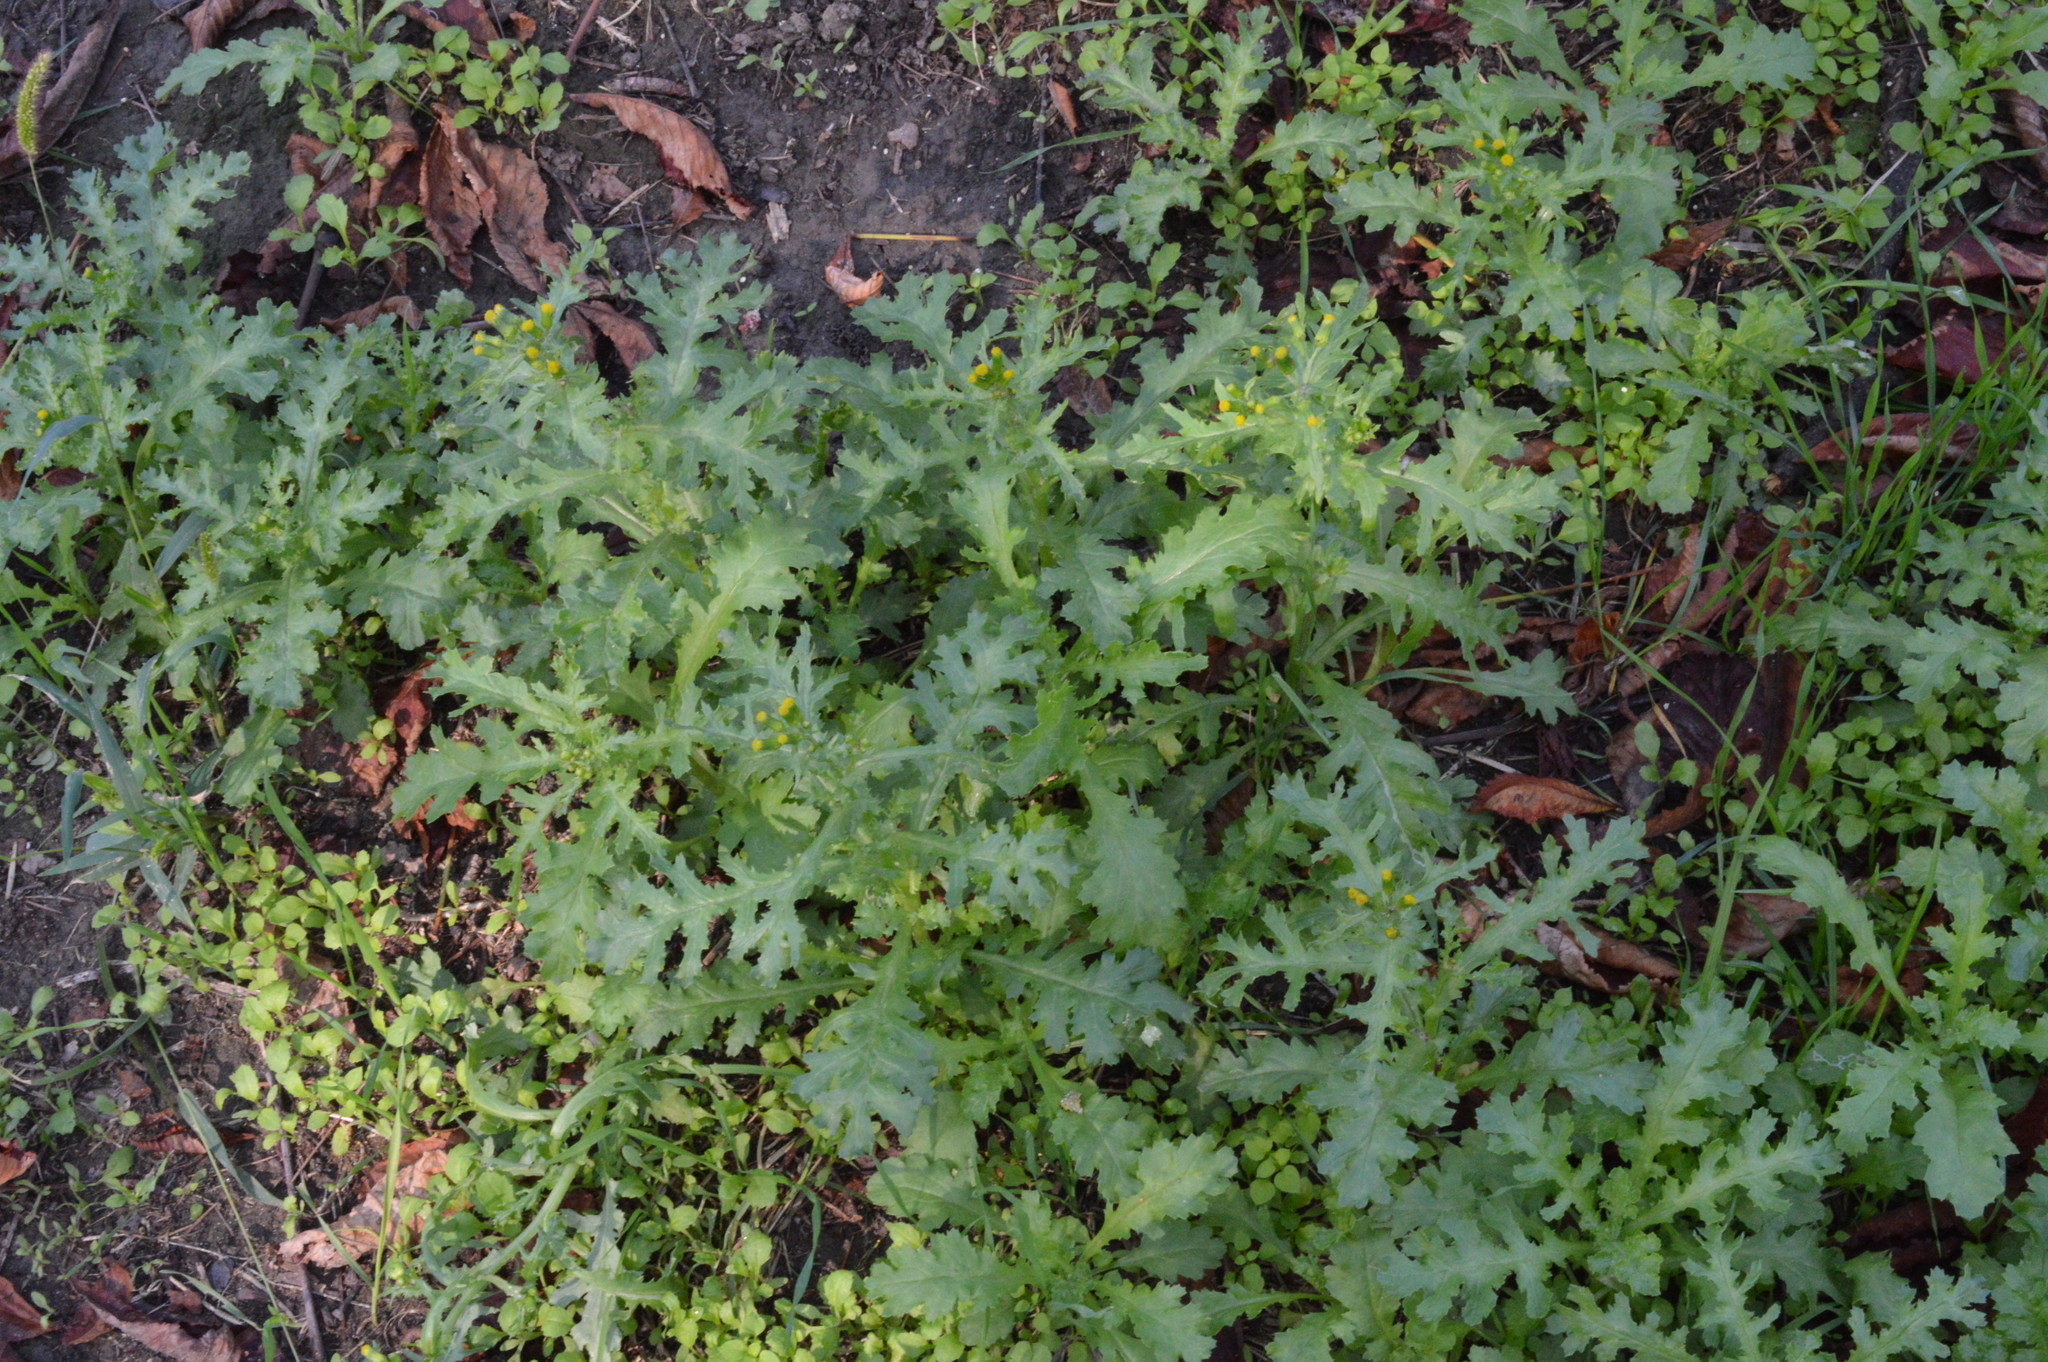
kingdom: Plantae
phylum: Tracheophyta
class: Magnoliopsida
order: Asterales
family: Asteraceae
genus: Senecio
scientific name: Senecio vulgaris
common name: Old-man-in-the-spring
